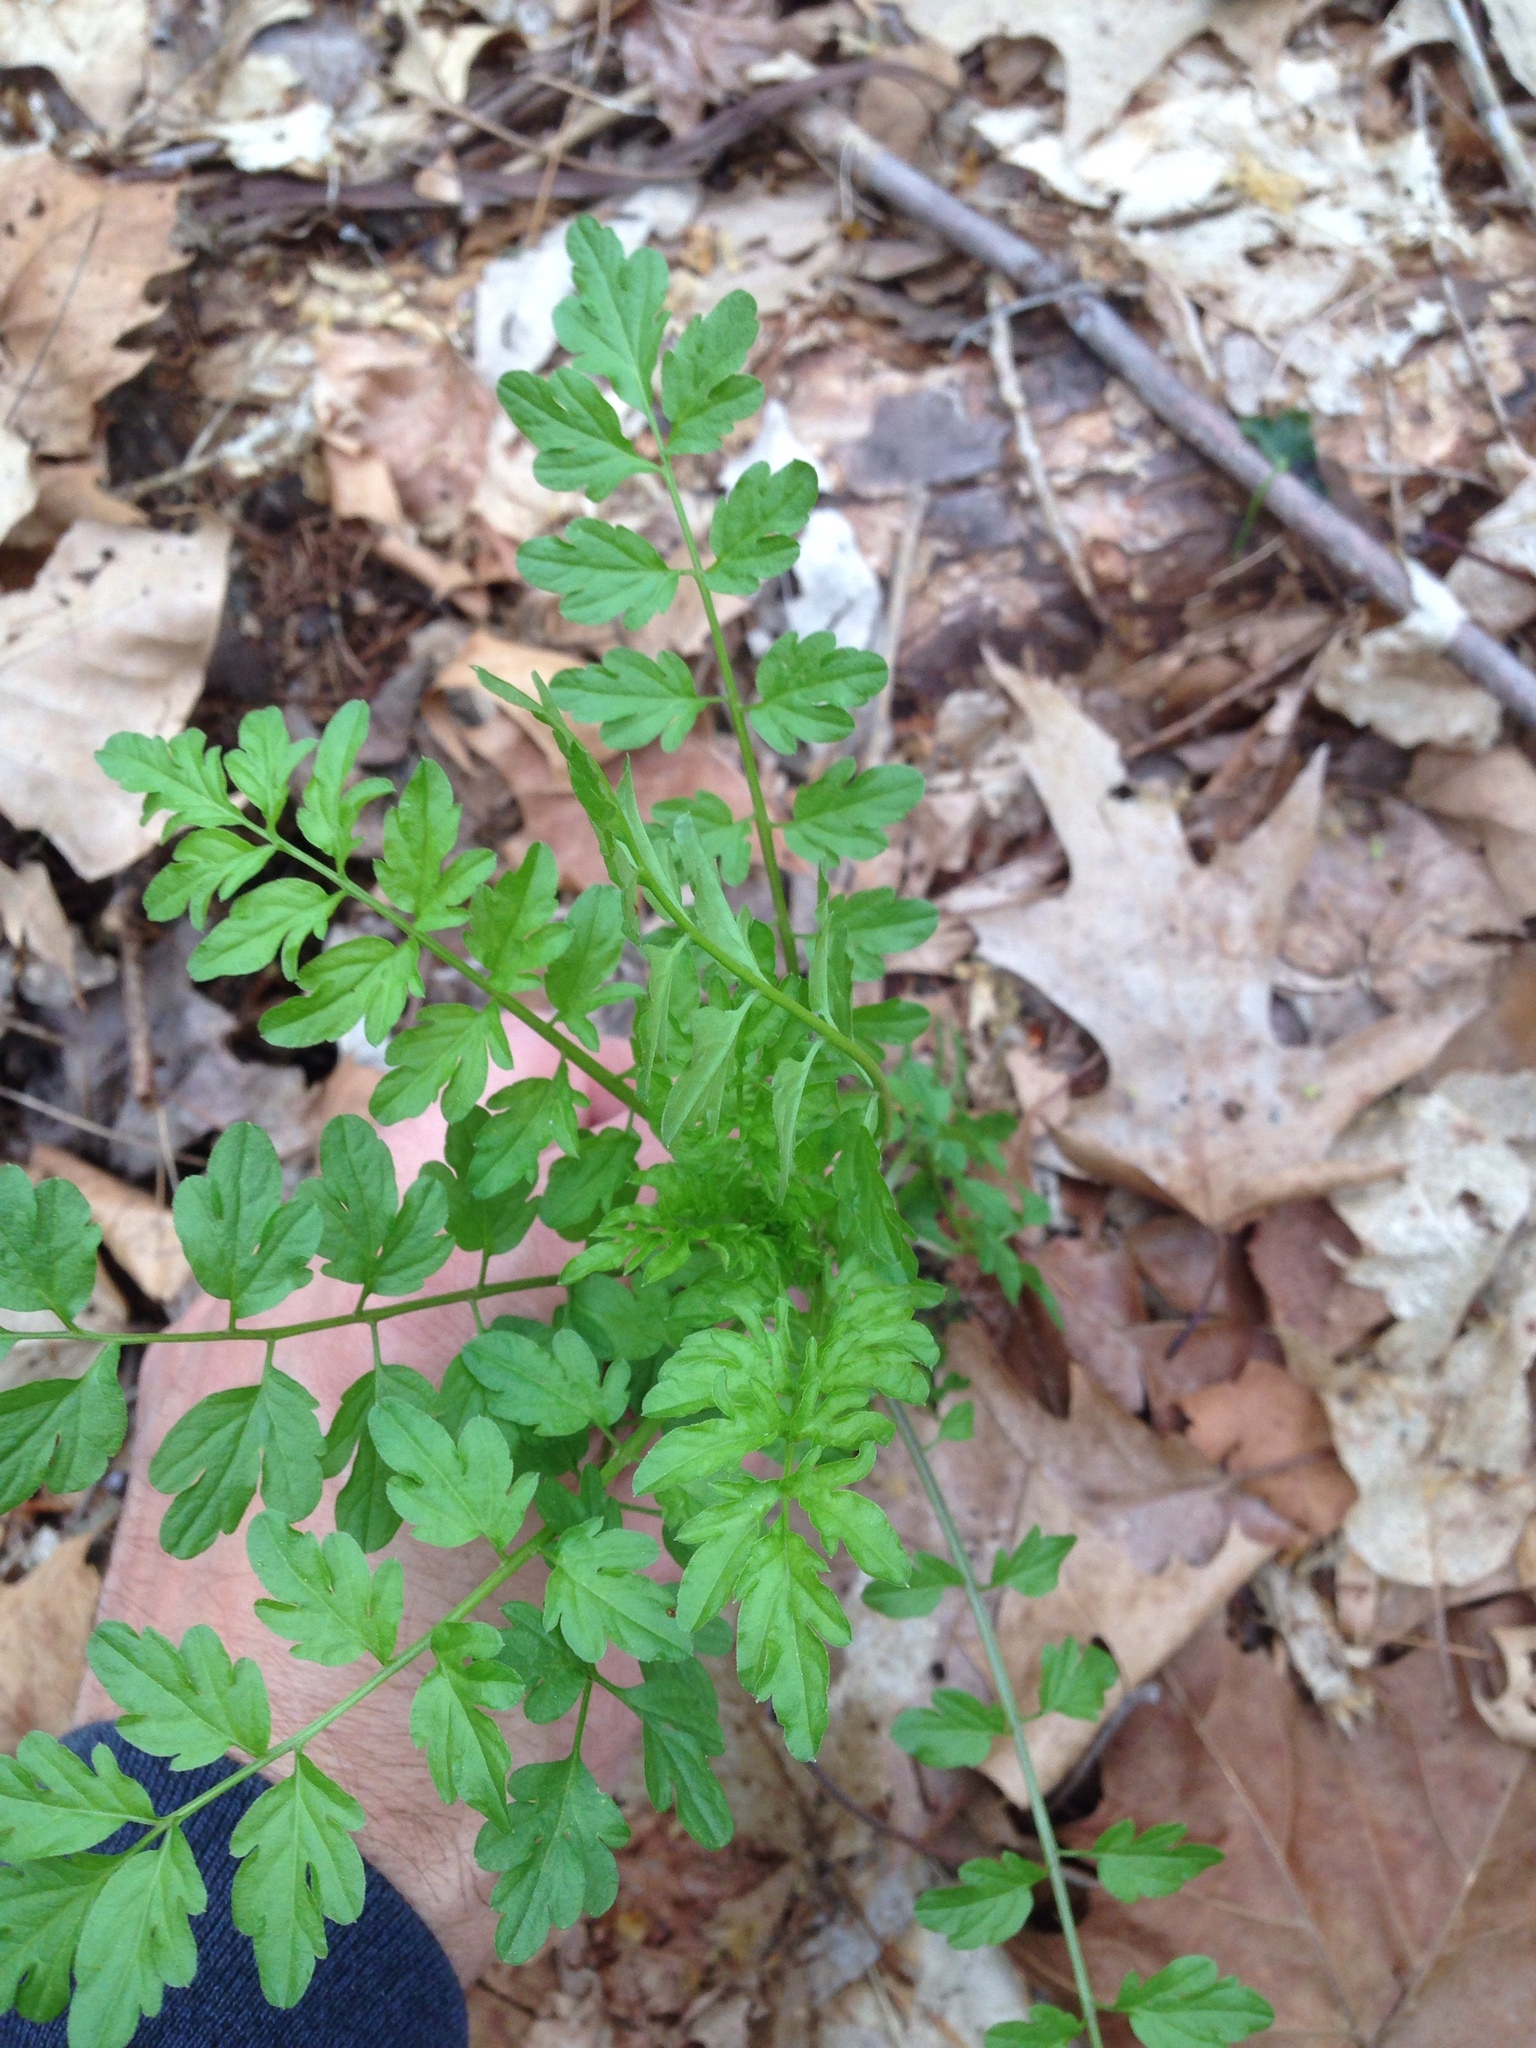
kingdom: Plantae
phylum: Tracheophyta
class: Magnoliopsida
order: Brassicales
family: Brassicaceae
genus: Cardamine
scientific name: Cardamine impatiens
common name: Narrow-leaved bitter-cress
